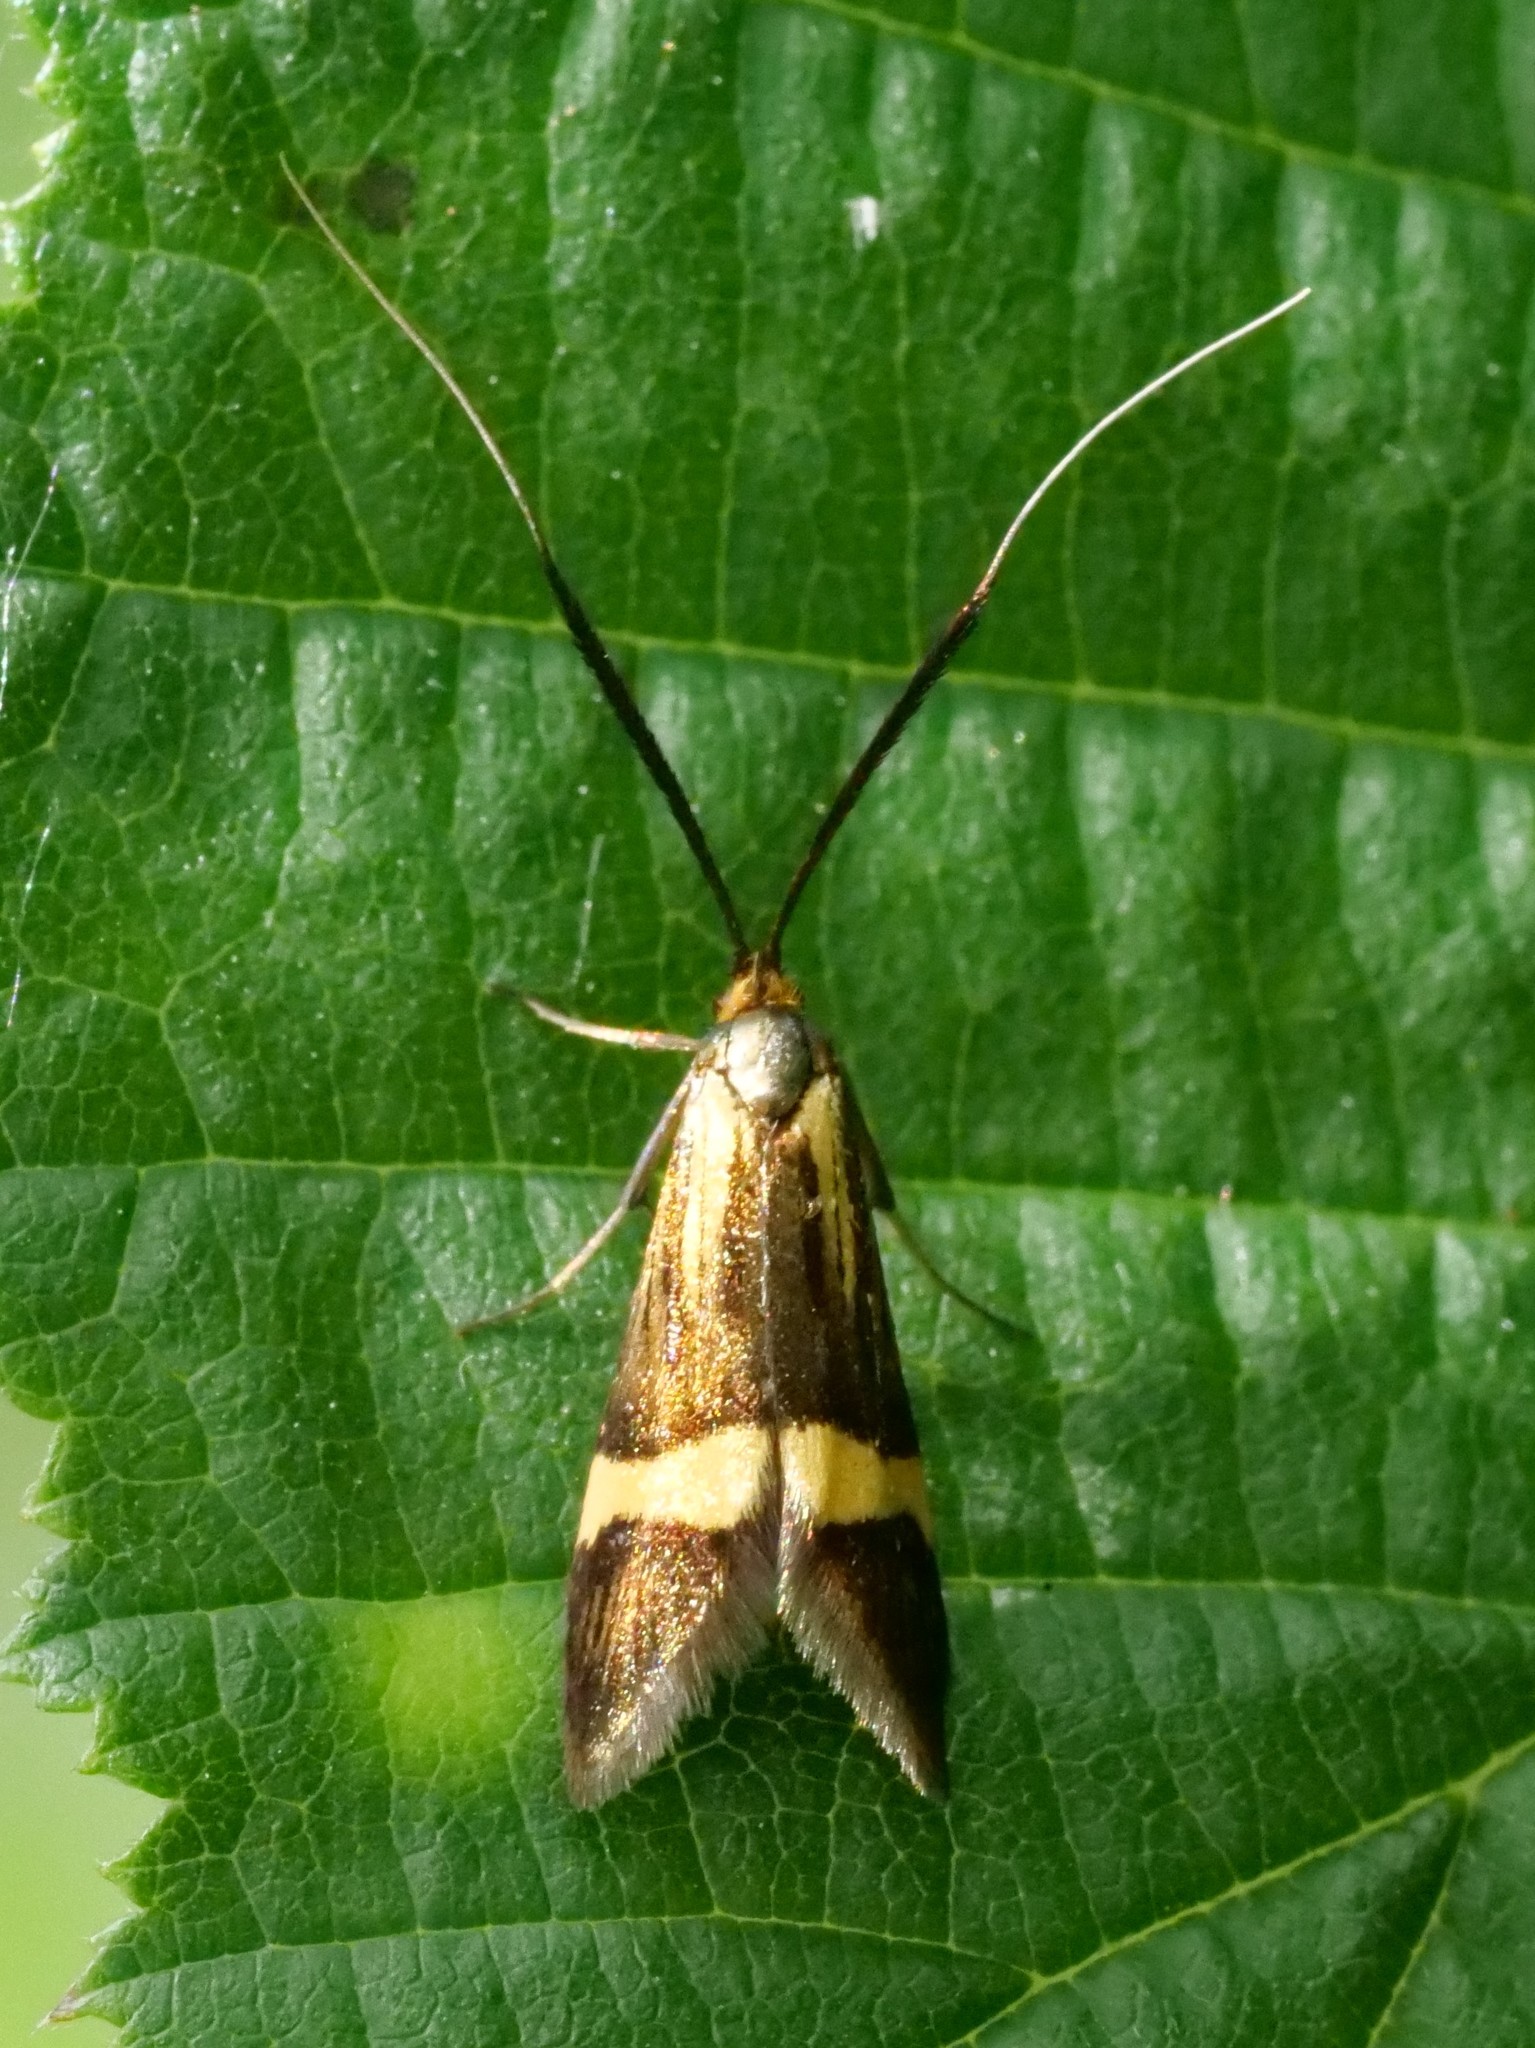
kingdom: Animalia
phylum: Arthropoda
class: Insecta
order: Lepidoptera
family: Adelidae
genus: Nemophora
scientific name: Nemophora degeerella
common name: Yellow-barred long-horn
